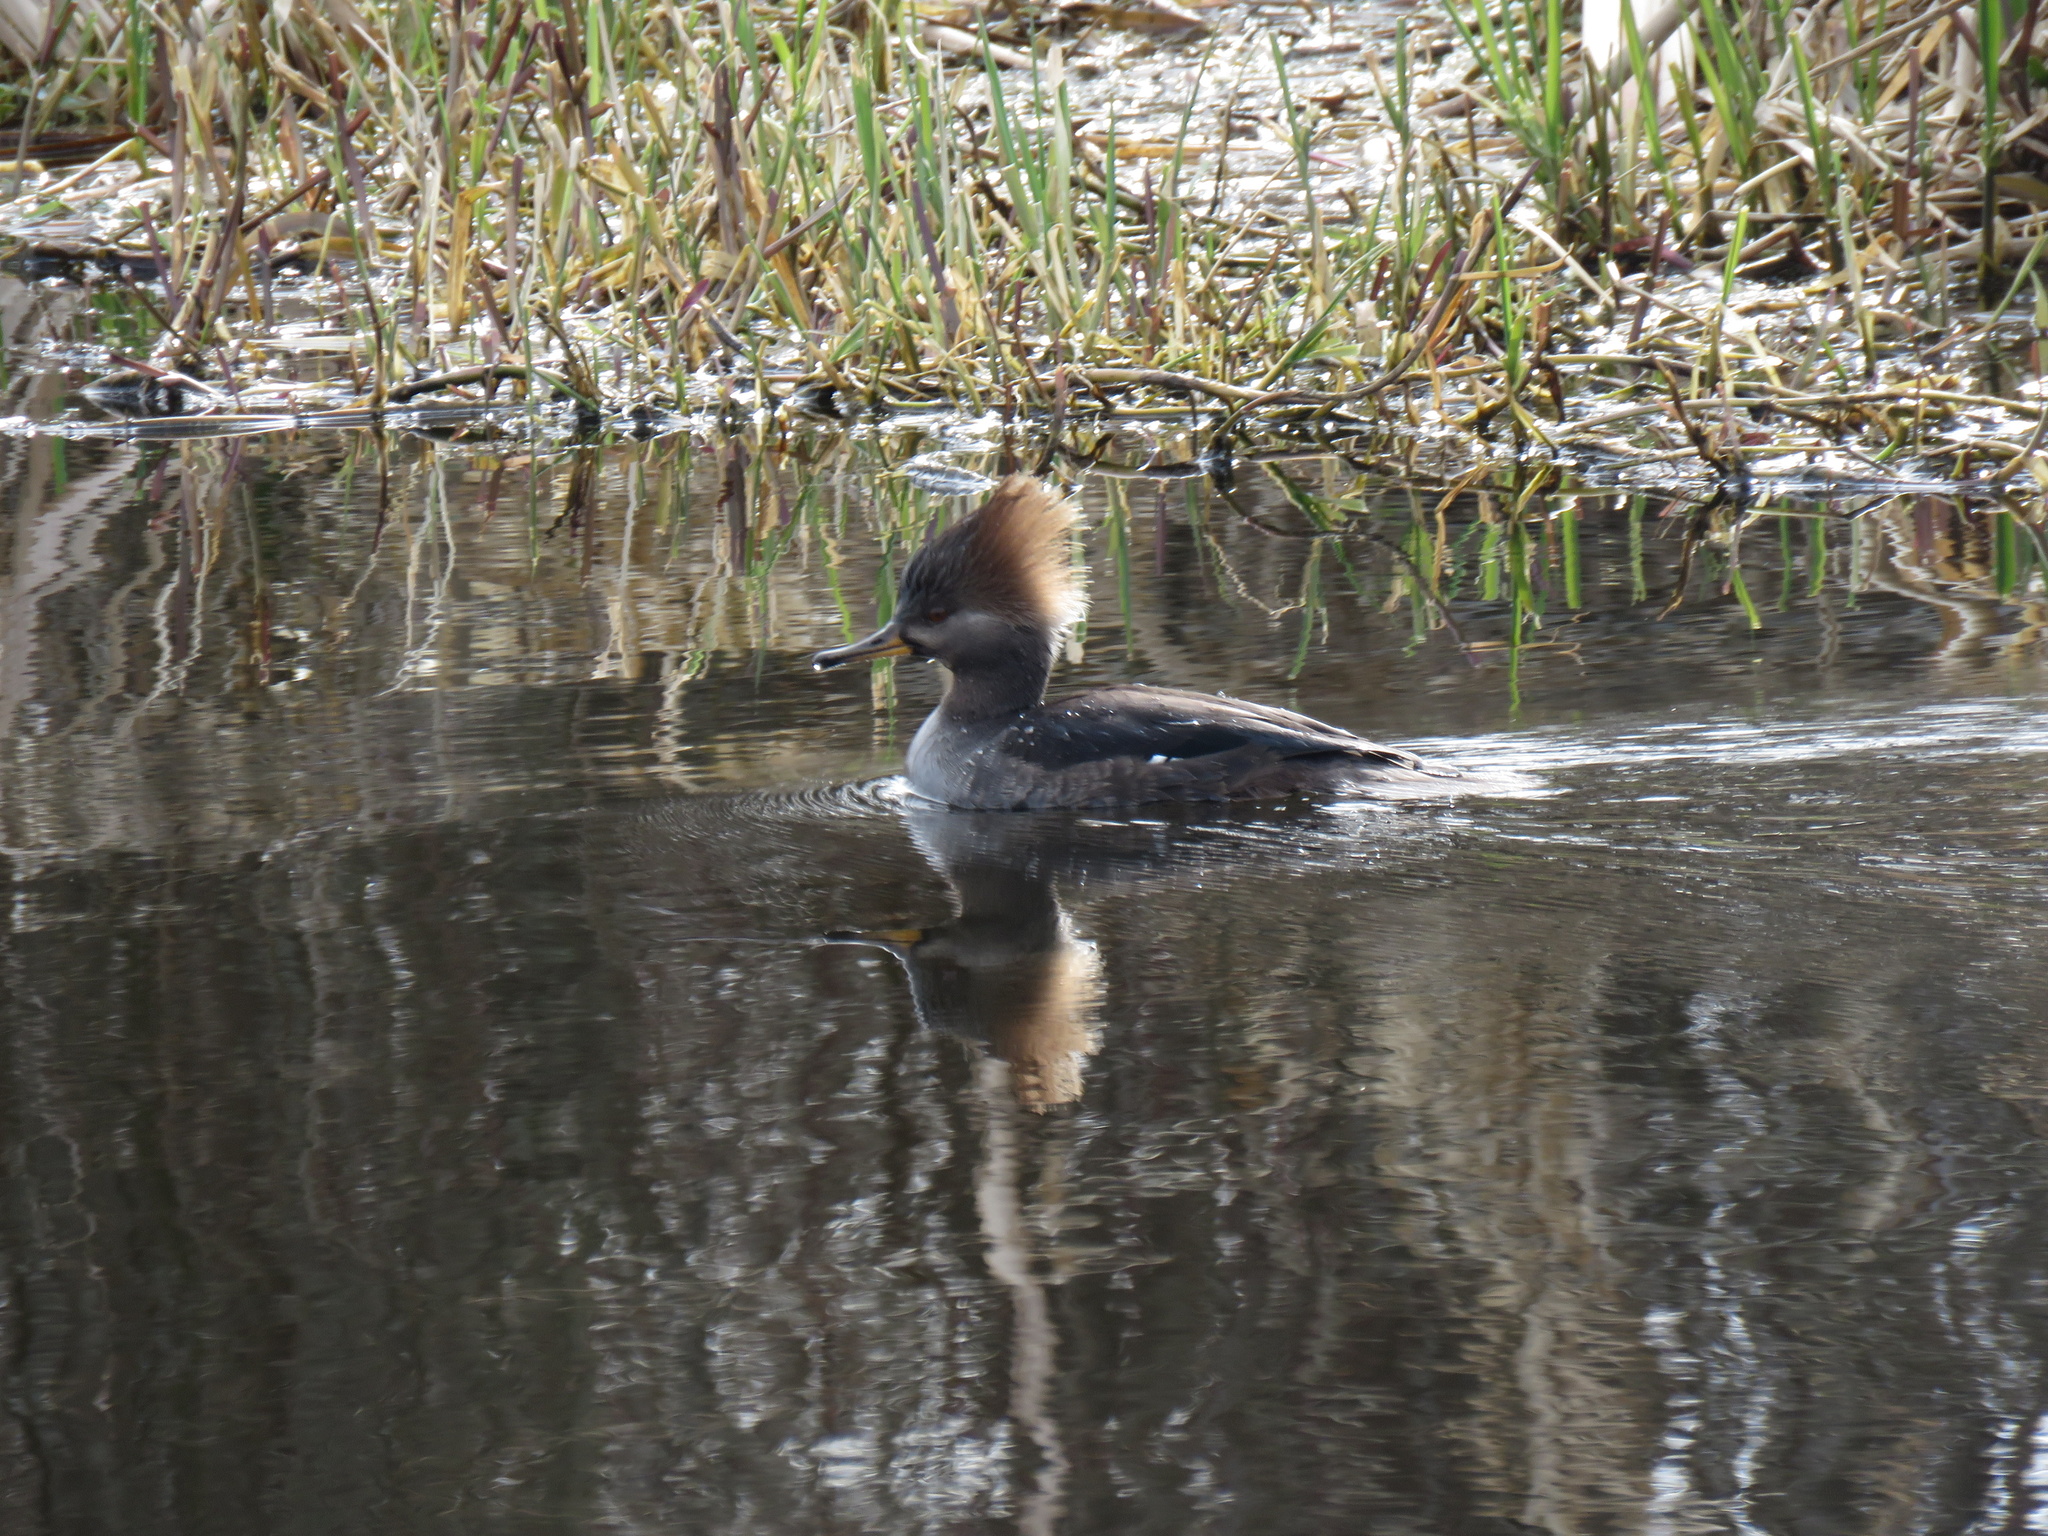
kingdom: Animalia
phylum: Chordata
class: Aves
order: Anseriformes
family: Anatidae
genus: Lophodytes
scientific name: Lophodytes cucullatus
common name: Hooded merganser
